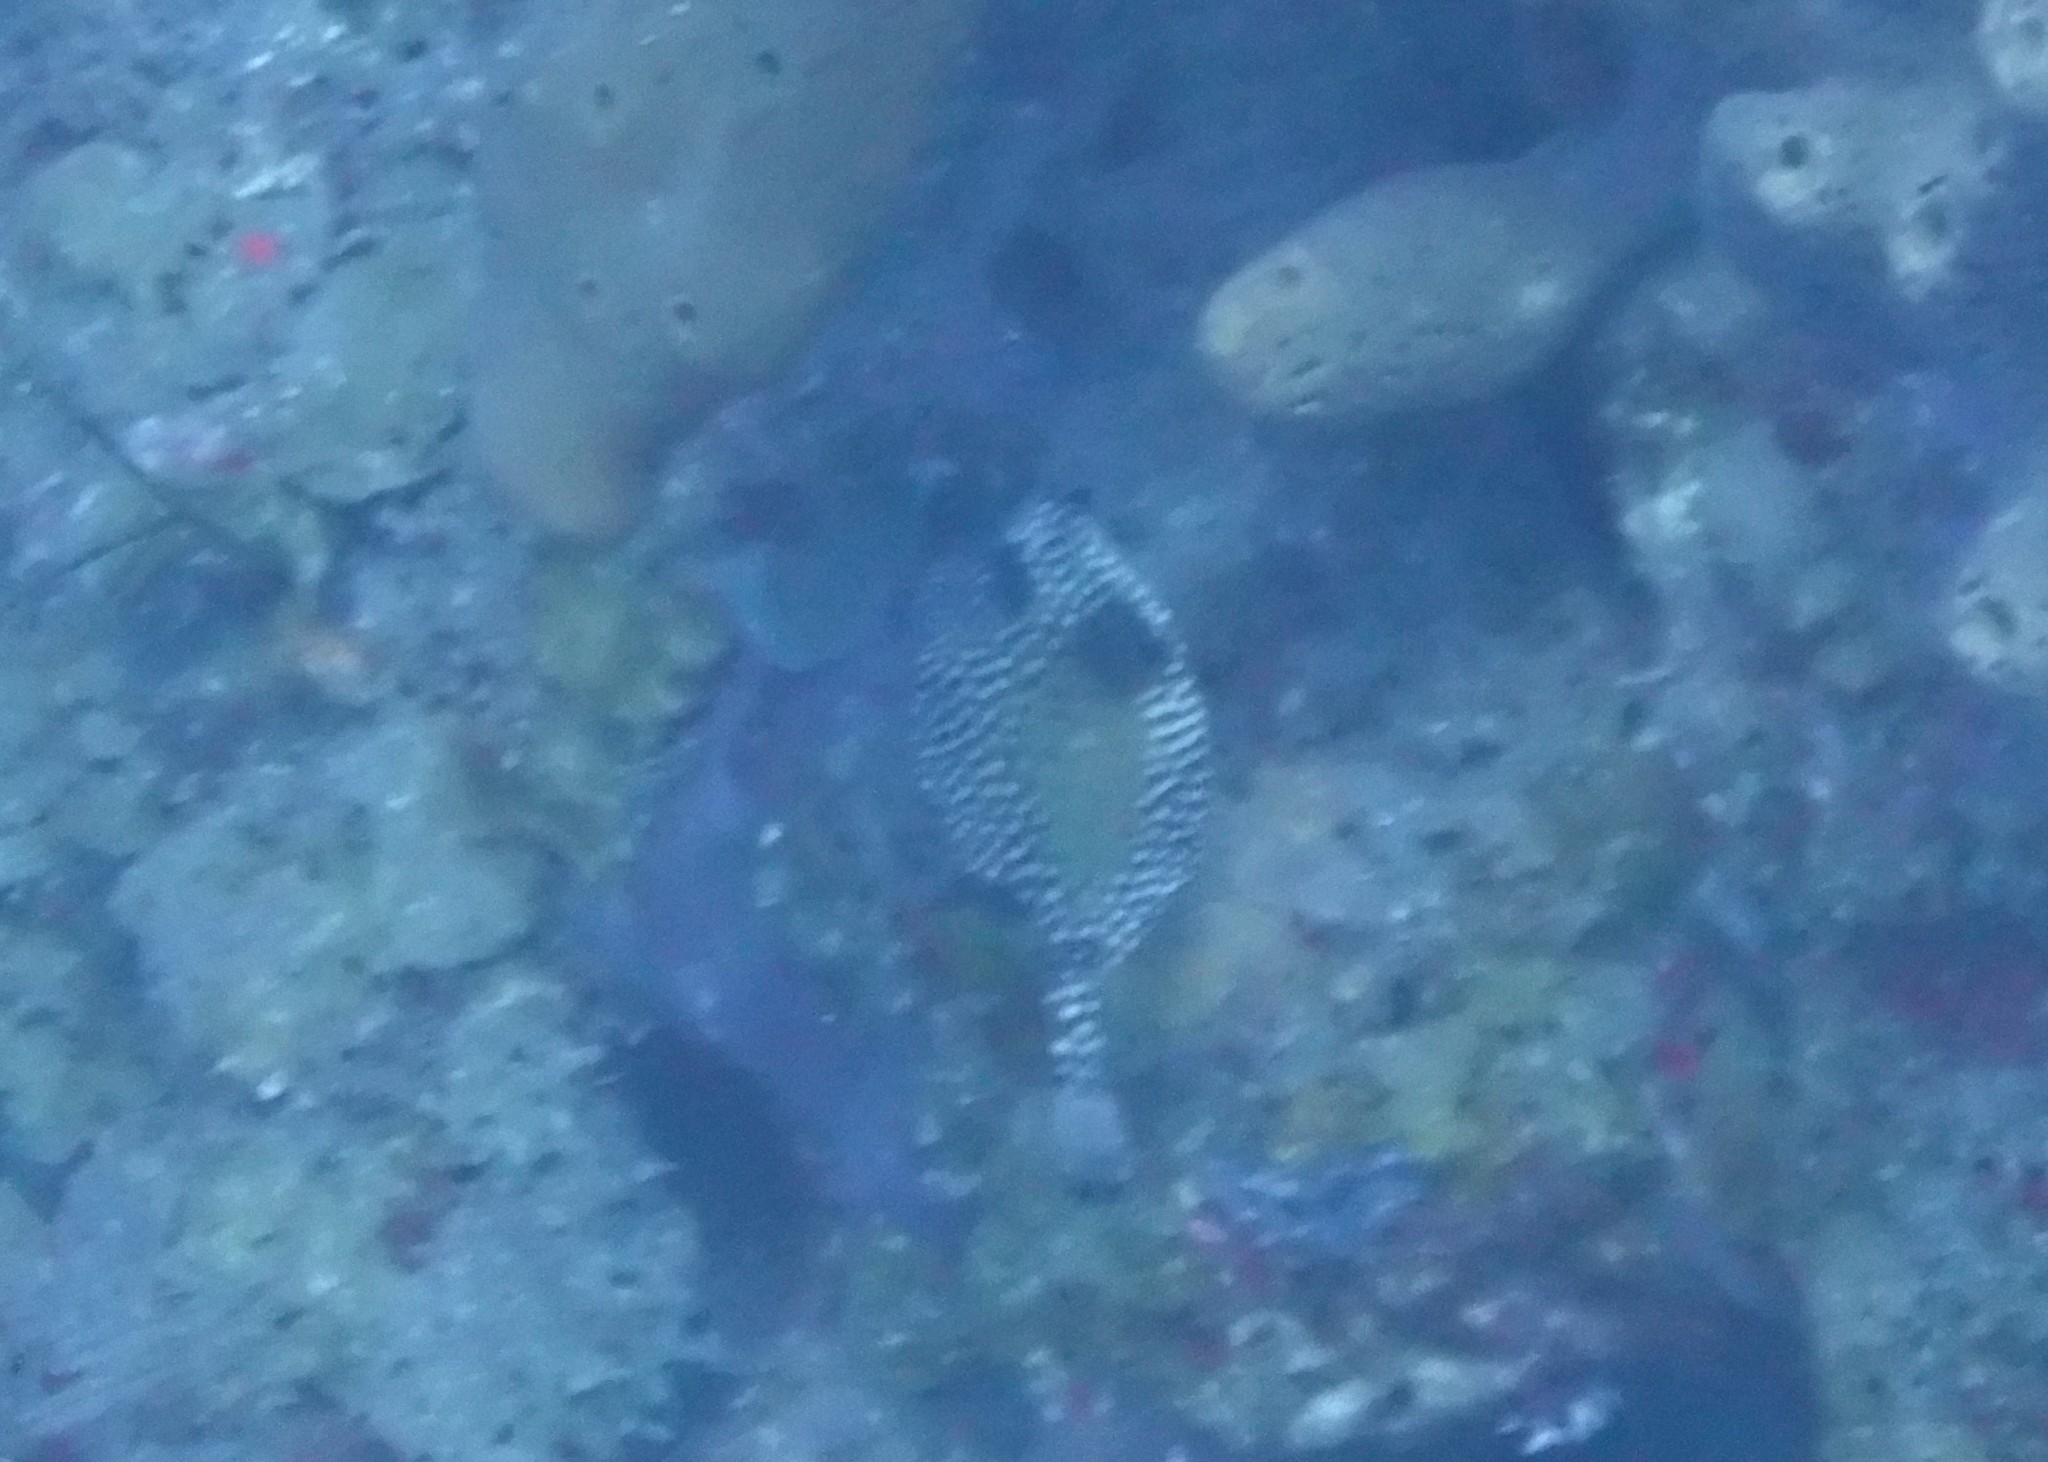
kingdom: Animalia
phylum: Chordata
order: Tetraodontiformes
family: Ostraciidae
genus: Lactophrys
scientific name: Lactophrys triqueter
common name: Smooth trunkfish
